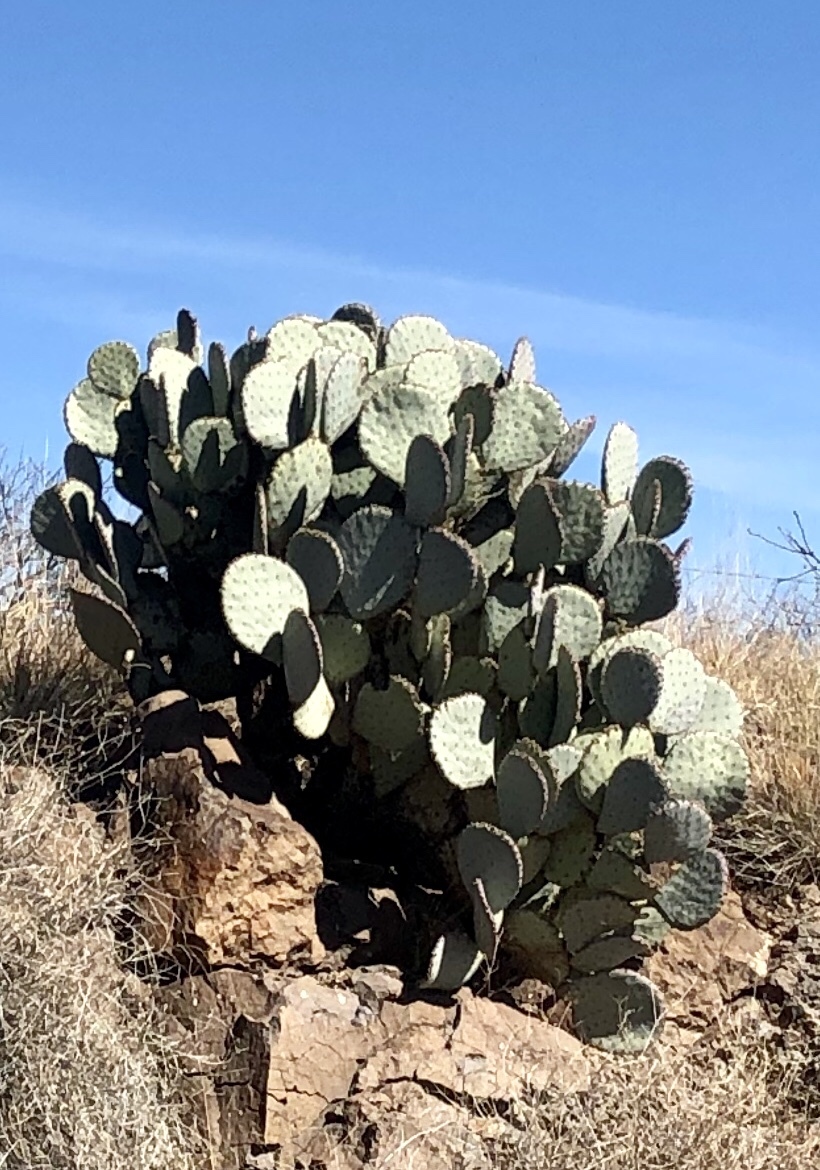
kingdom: Plantae
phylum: Tracheophyta
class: Magnoliopsida
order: Caryophyllales
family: Cactaceae
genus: Opuntia
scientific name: Opuntia gosseliniana
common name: Violet prickly-pear
